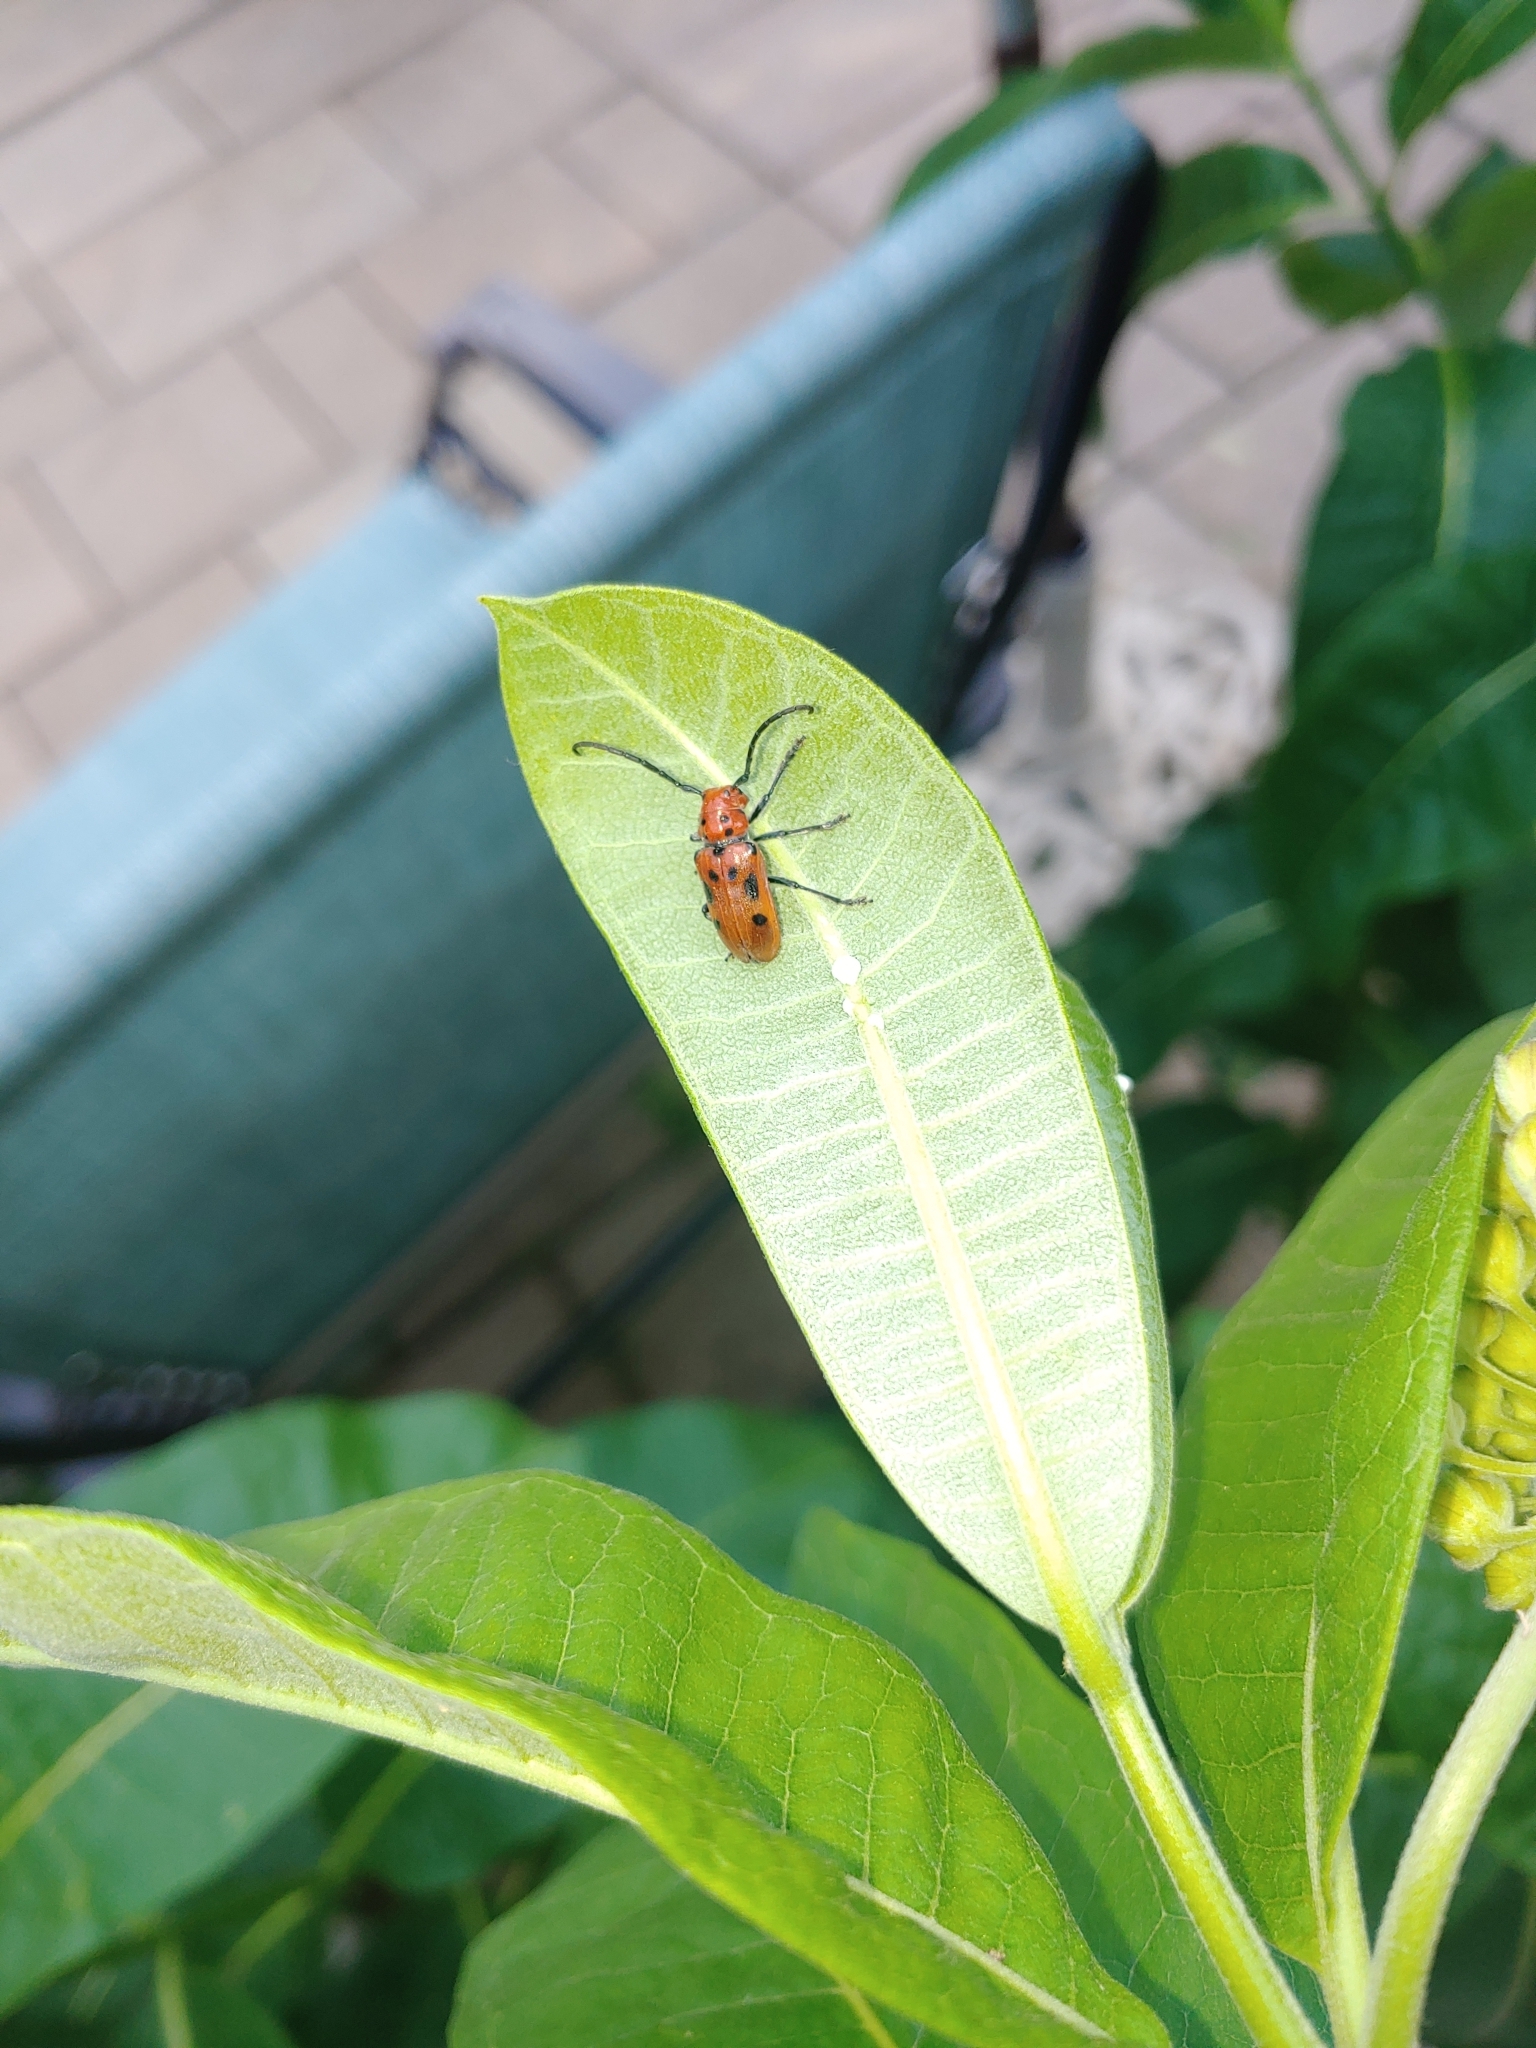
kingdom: Animalia
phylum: Arthropoda
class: Insecta
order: Coleoptera
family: Cerambycidae
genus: Tetraopes
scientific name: Tetraopes tetrophthalmus
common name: Red milkweed beetle
